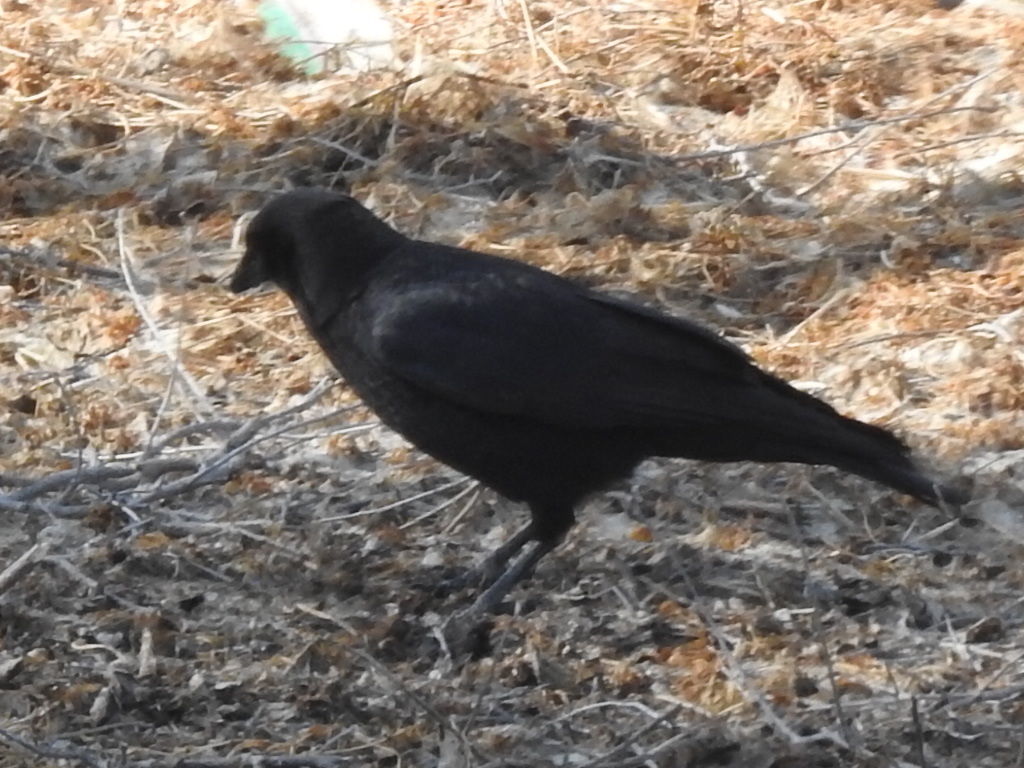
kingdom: Animalia
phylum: Chordata
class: Aves
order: Passeriformes
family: Corvidae
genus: Corvus
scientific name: Corvus brachyrhynchos
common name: American crow
